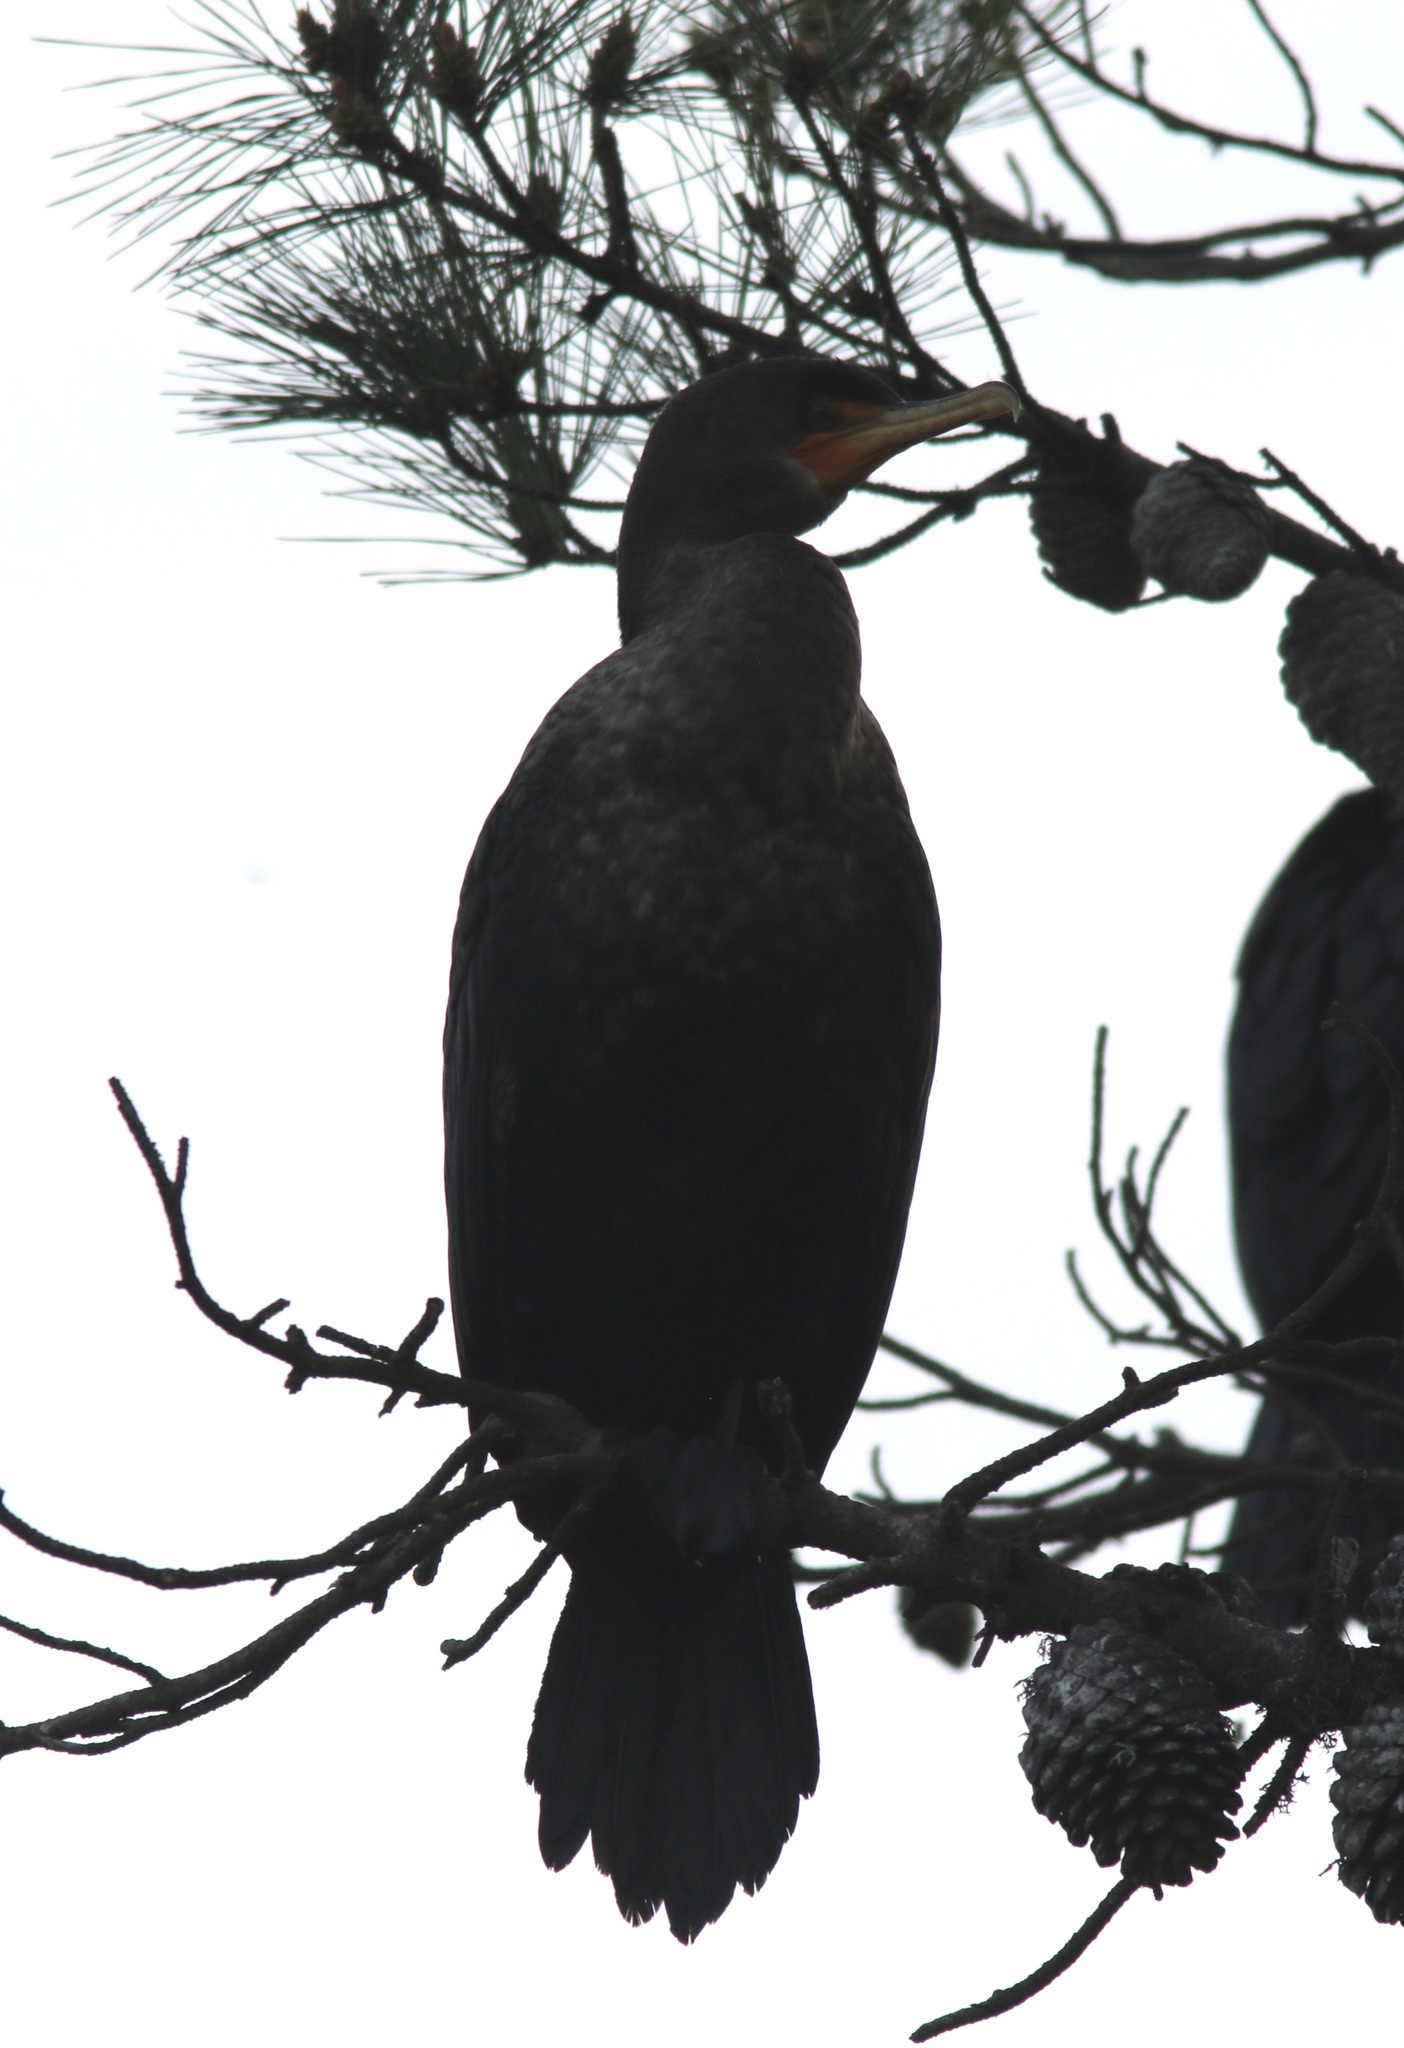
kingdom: Animalia
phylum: Chordata
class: Aves
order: Suliformes
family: Phalacrocoracidae
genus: Phalacrocorax
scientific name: Phalacrocorax auritus
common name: Double-crested cormorant
